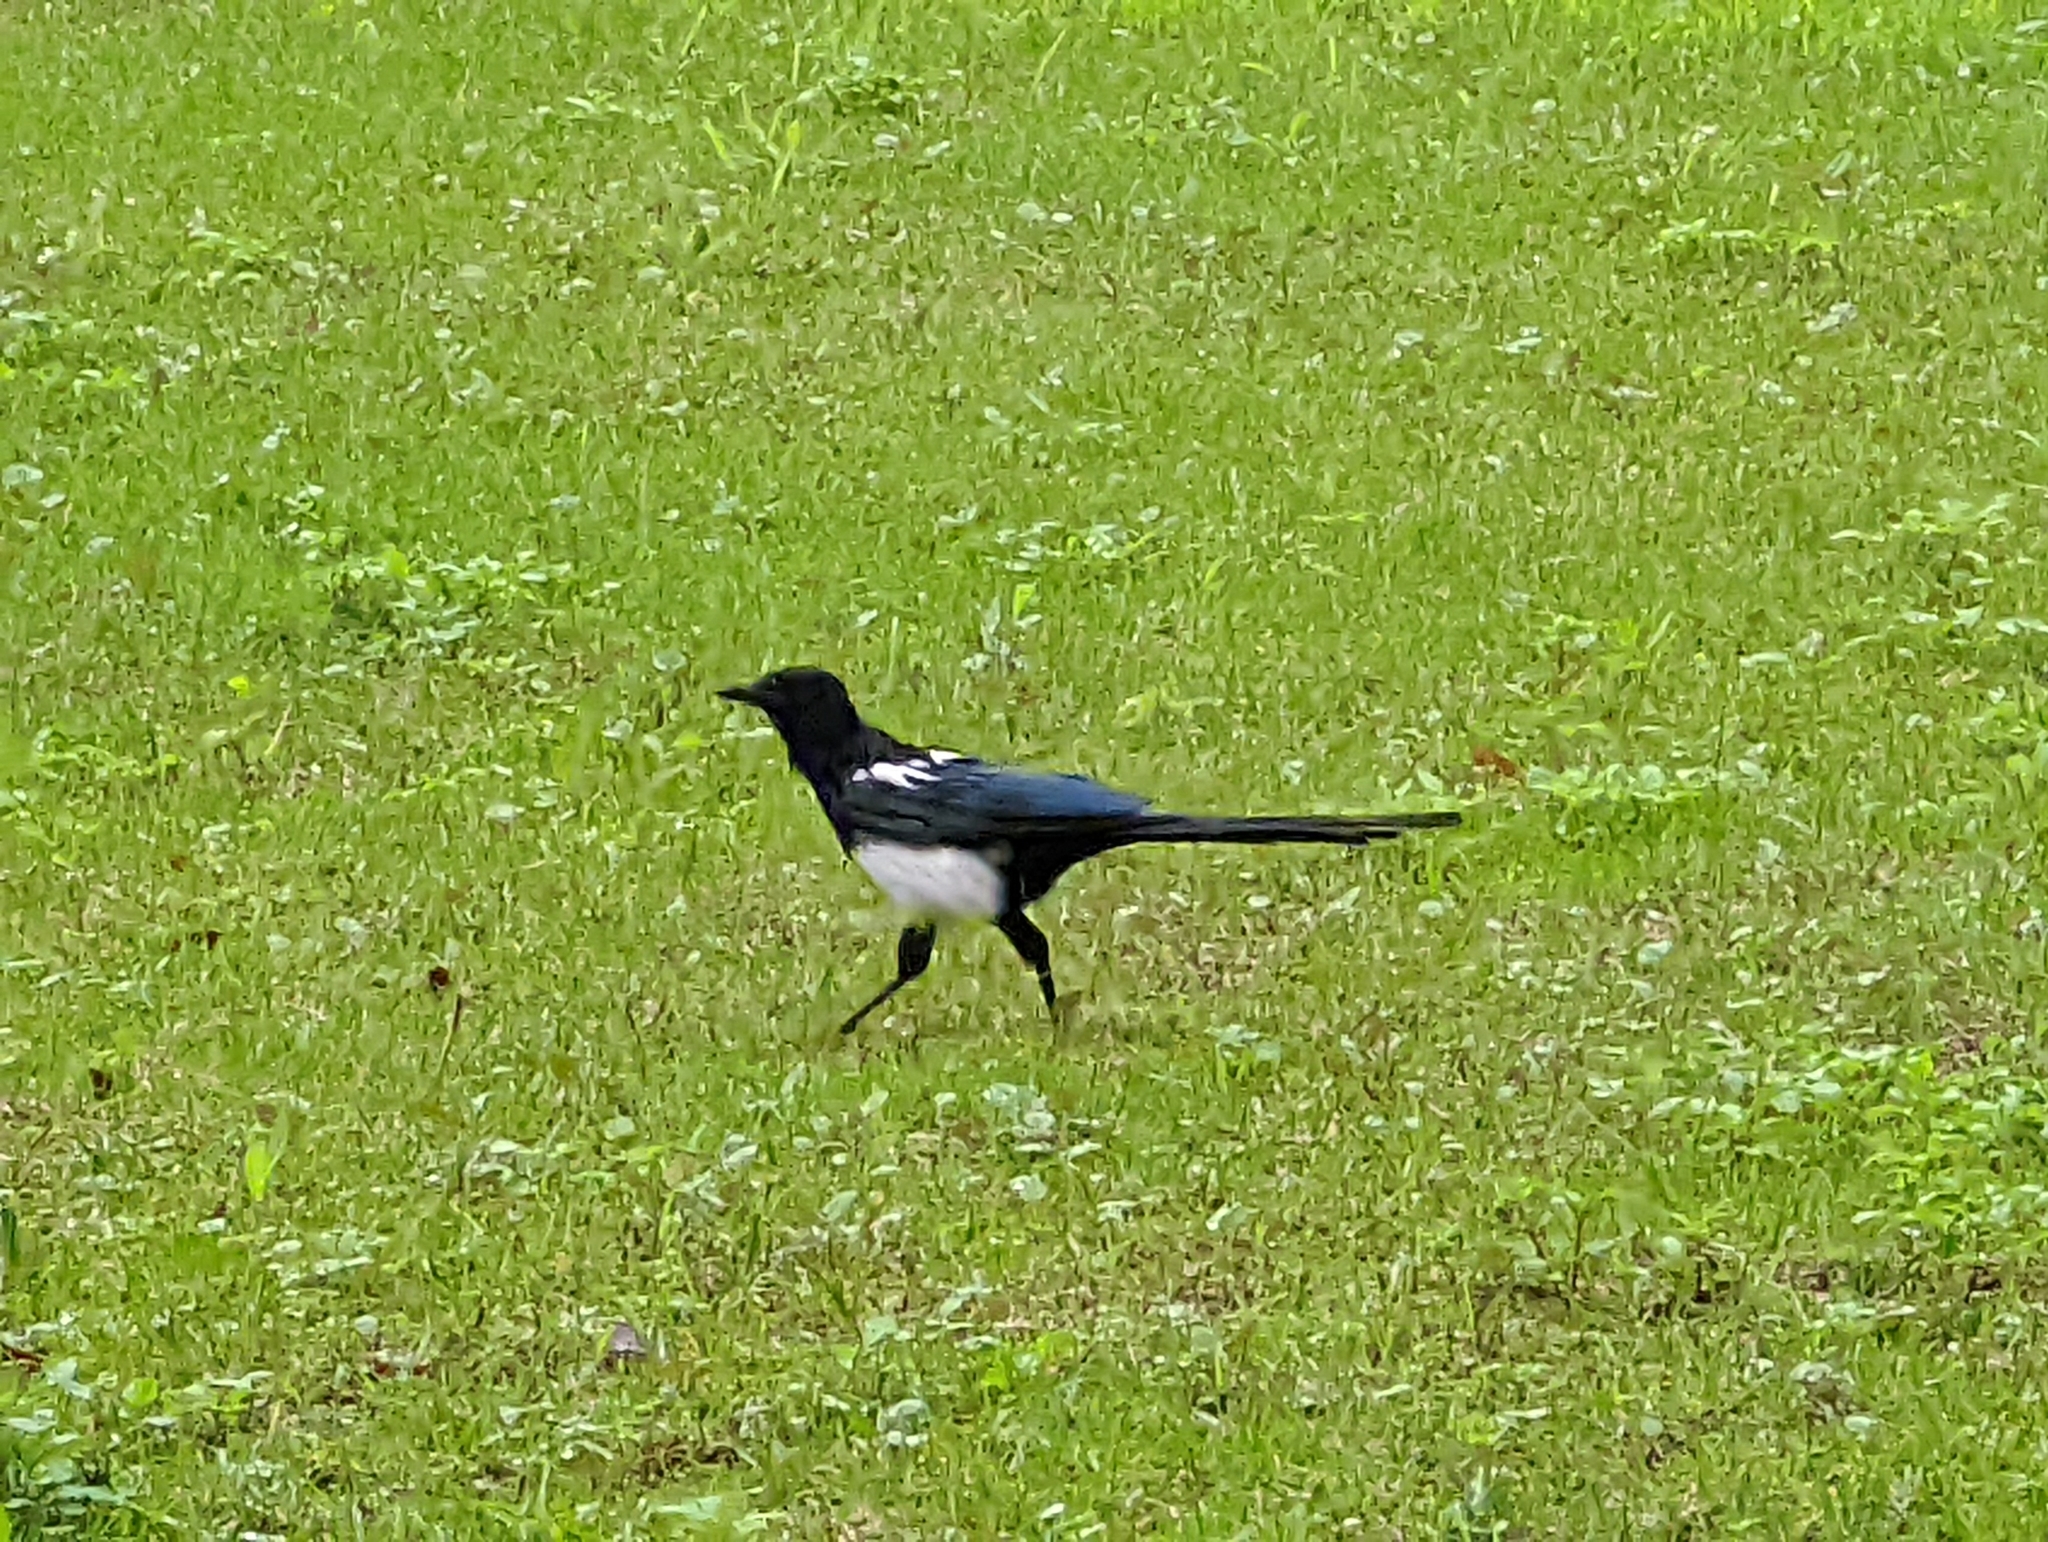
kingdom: Animalia
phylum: Chordata
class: Aves
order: Passeriformes
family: Corvidae
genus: Pica
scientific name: Pica serica
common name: Oriental magpie
